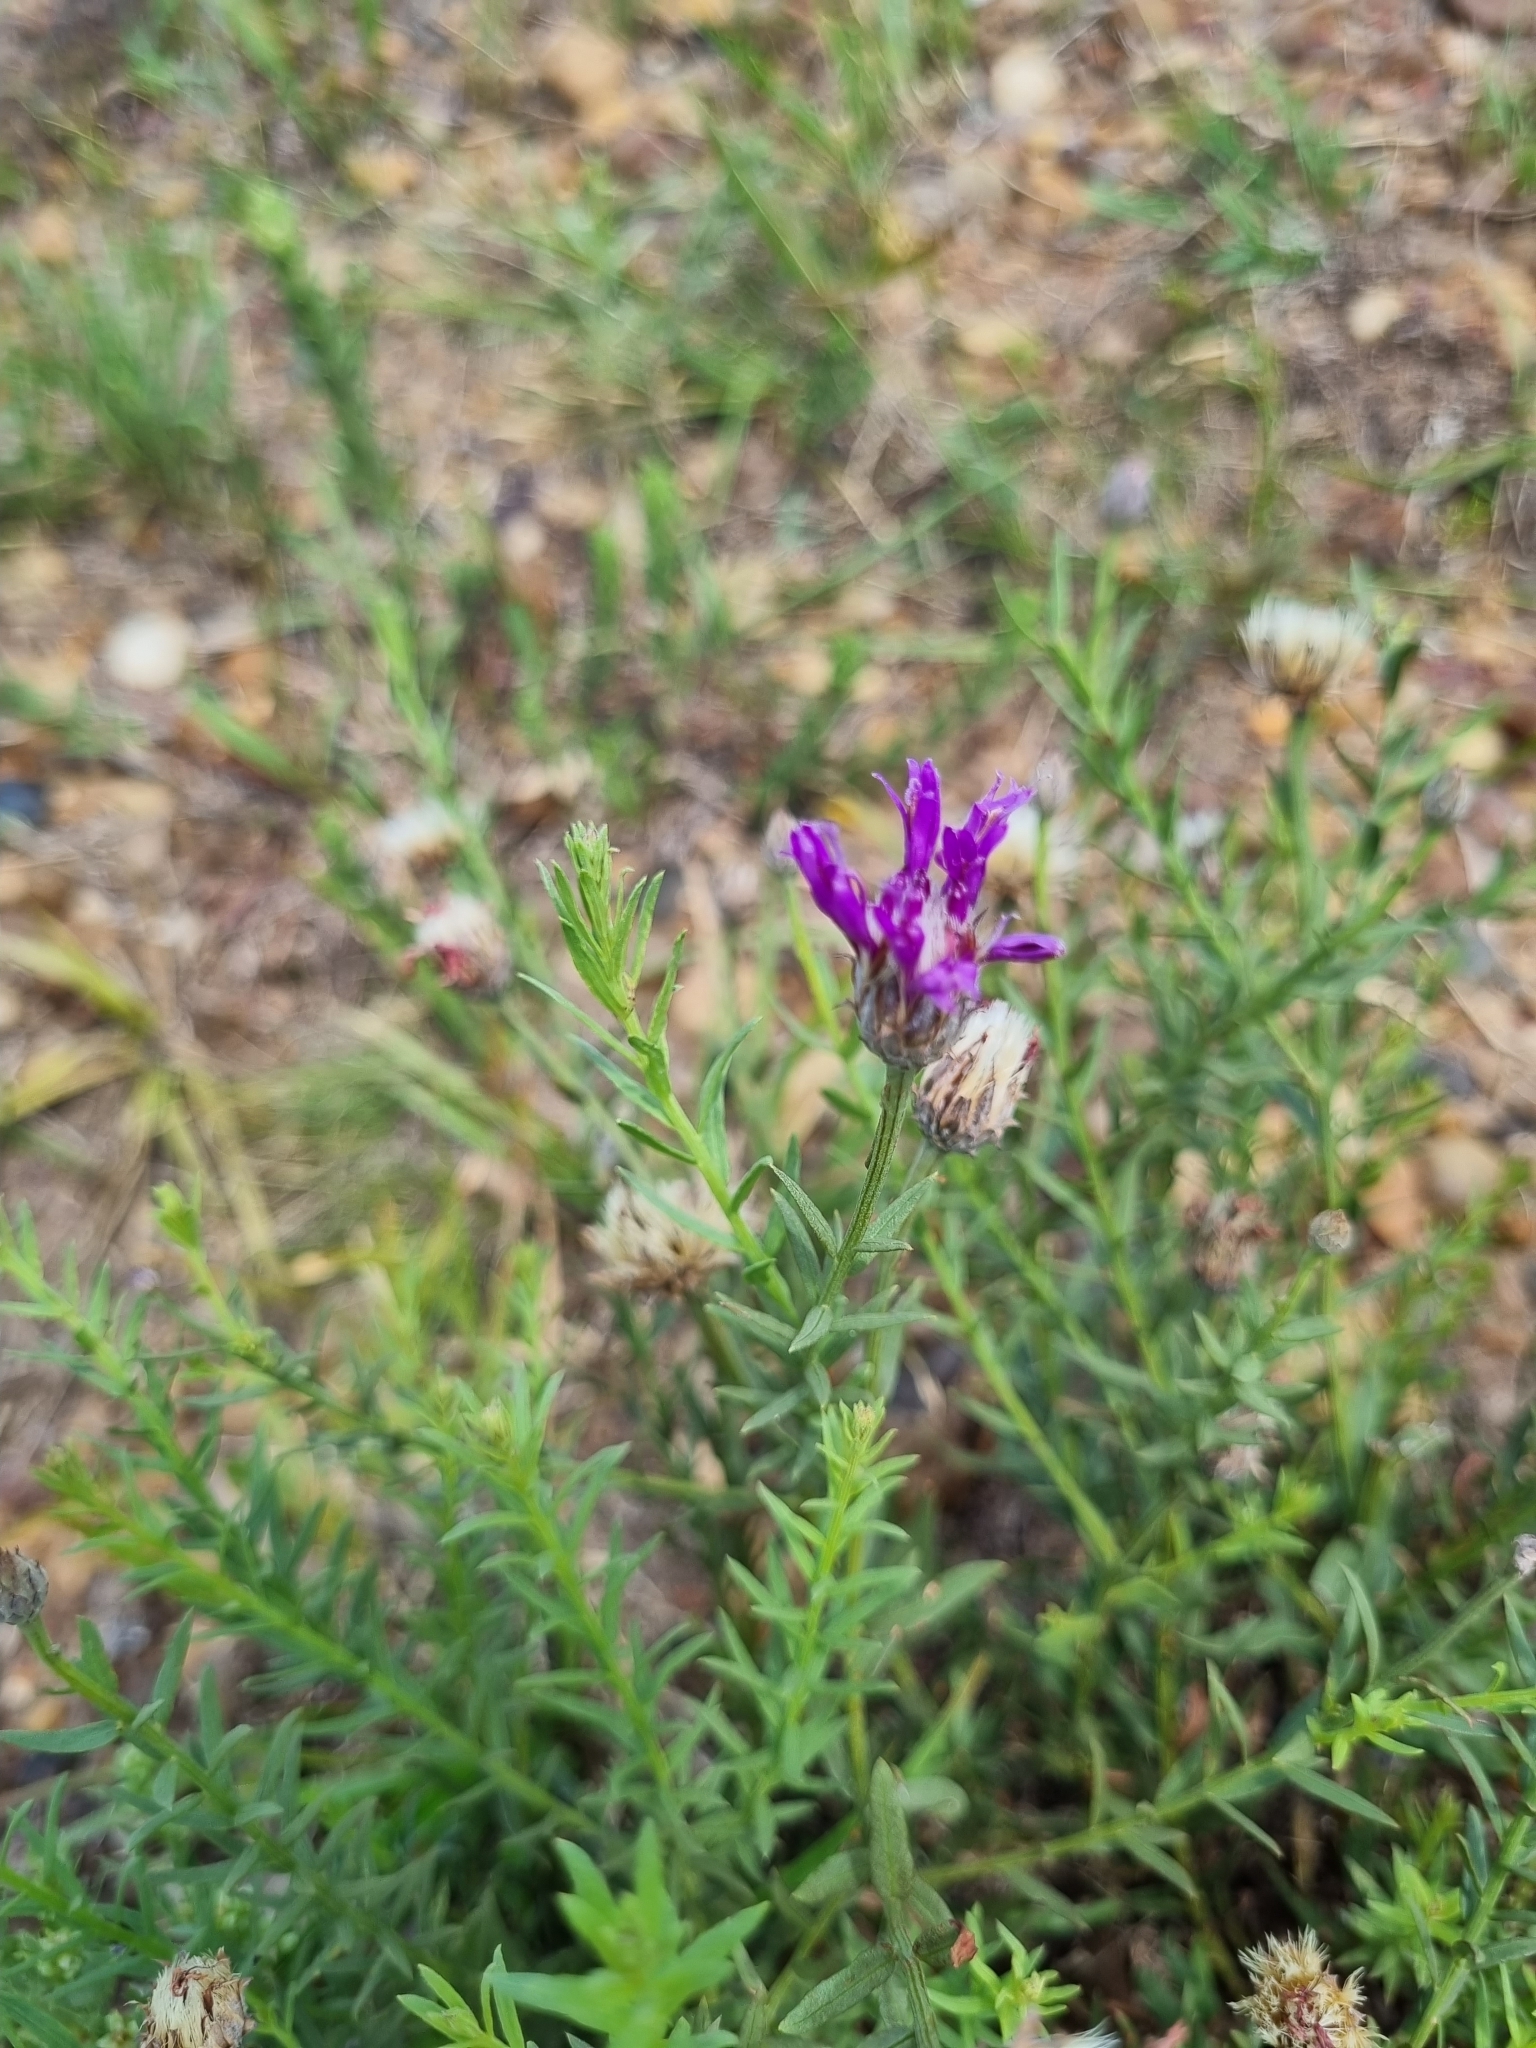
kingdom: Plantae
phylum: Tracheophyta
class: Magnoliopsida
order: Asterales
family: Asteraceae
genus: Lessingianthus
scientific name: Lessingianthus brevifolius
